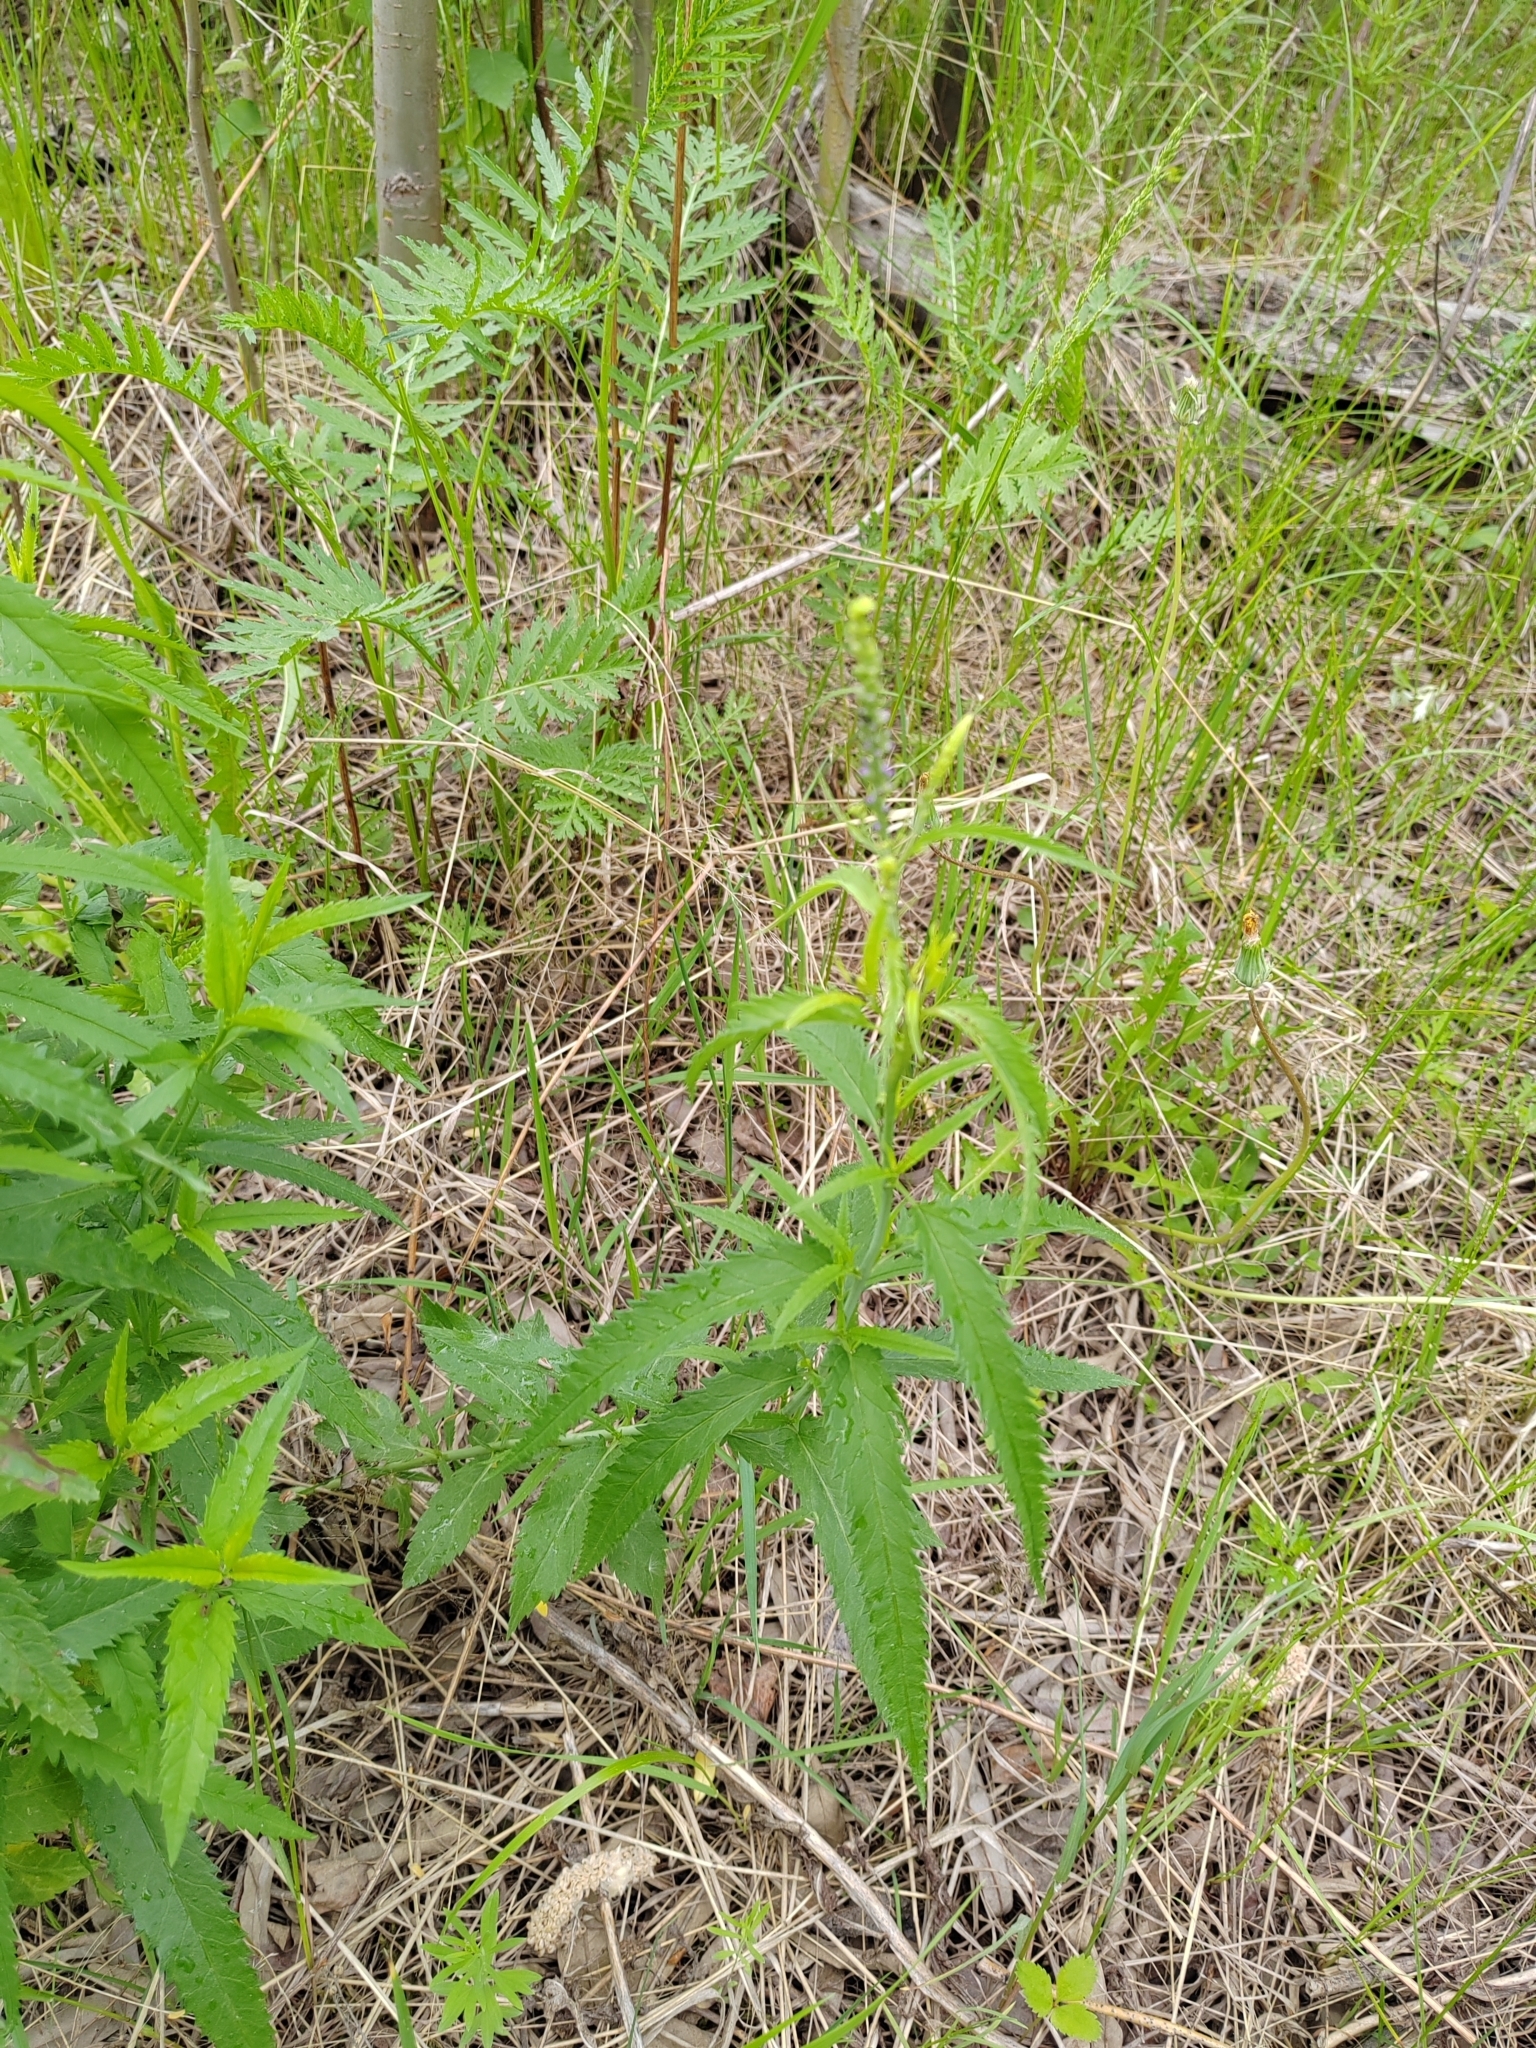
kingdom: Plantae
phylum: Tracheophyta
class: Magnoliopsida
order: Lamiales
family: Plantaginaceae
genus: Veronica
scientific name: Veronica longifolia
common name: Garden speedwell
